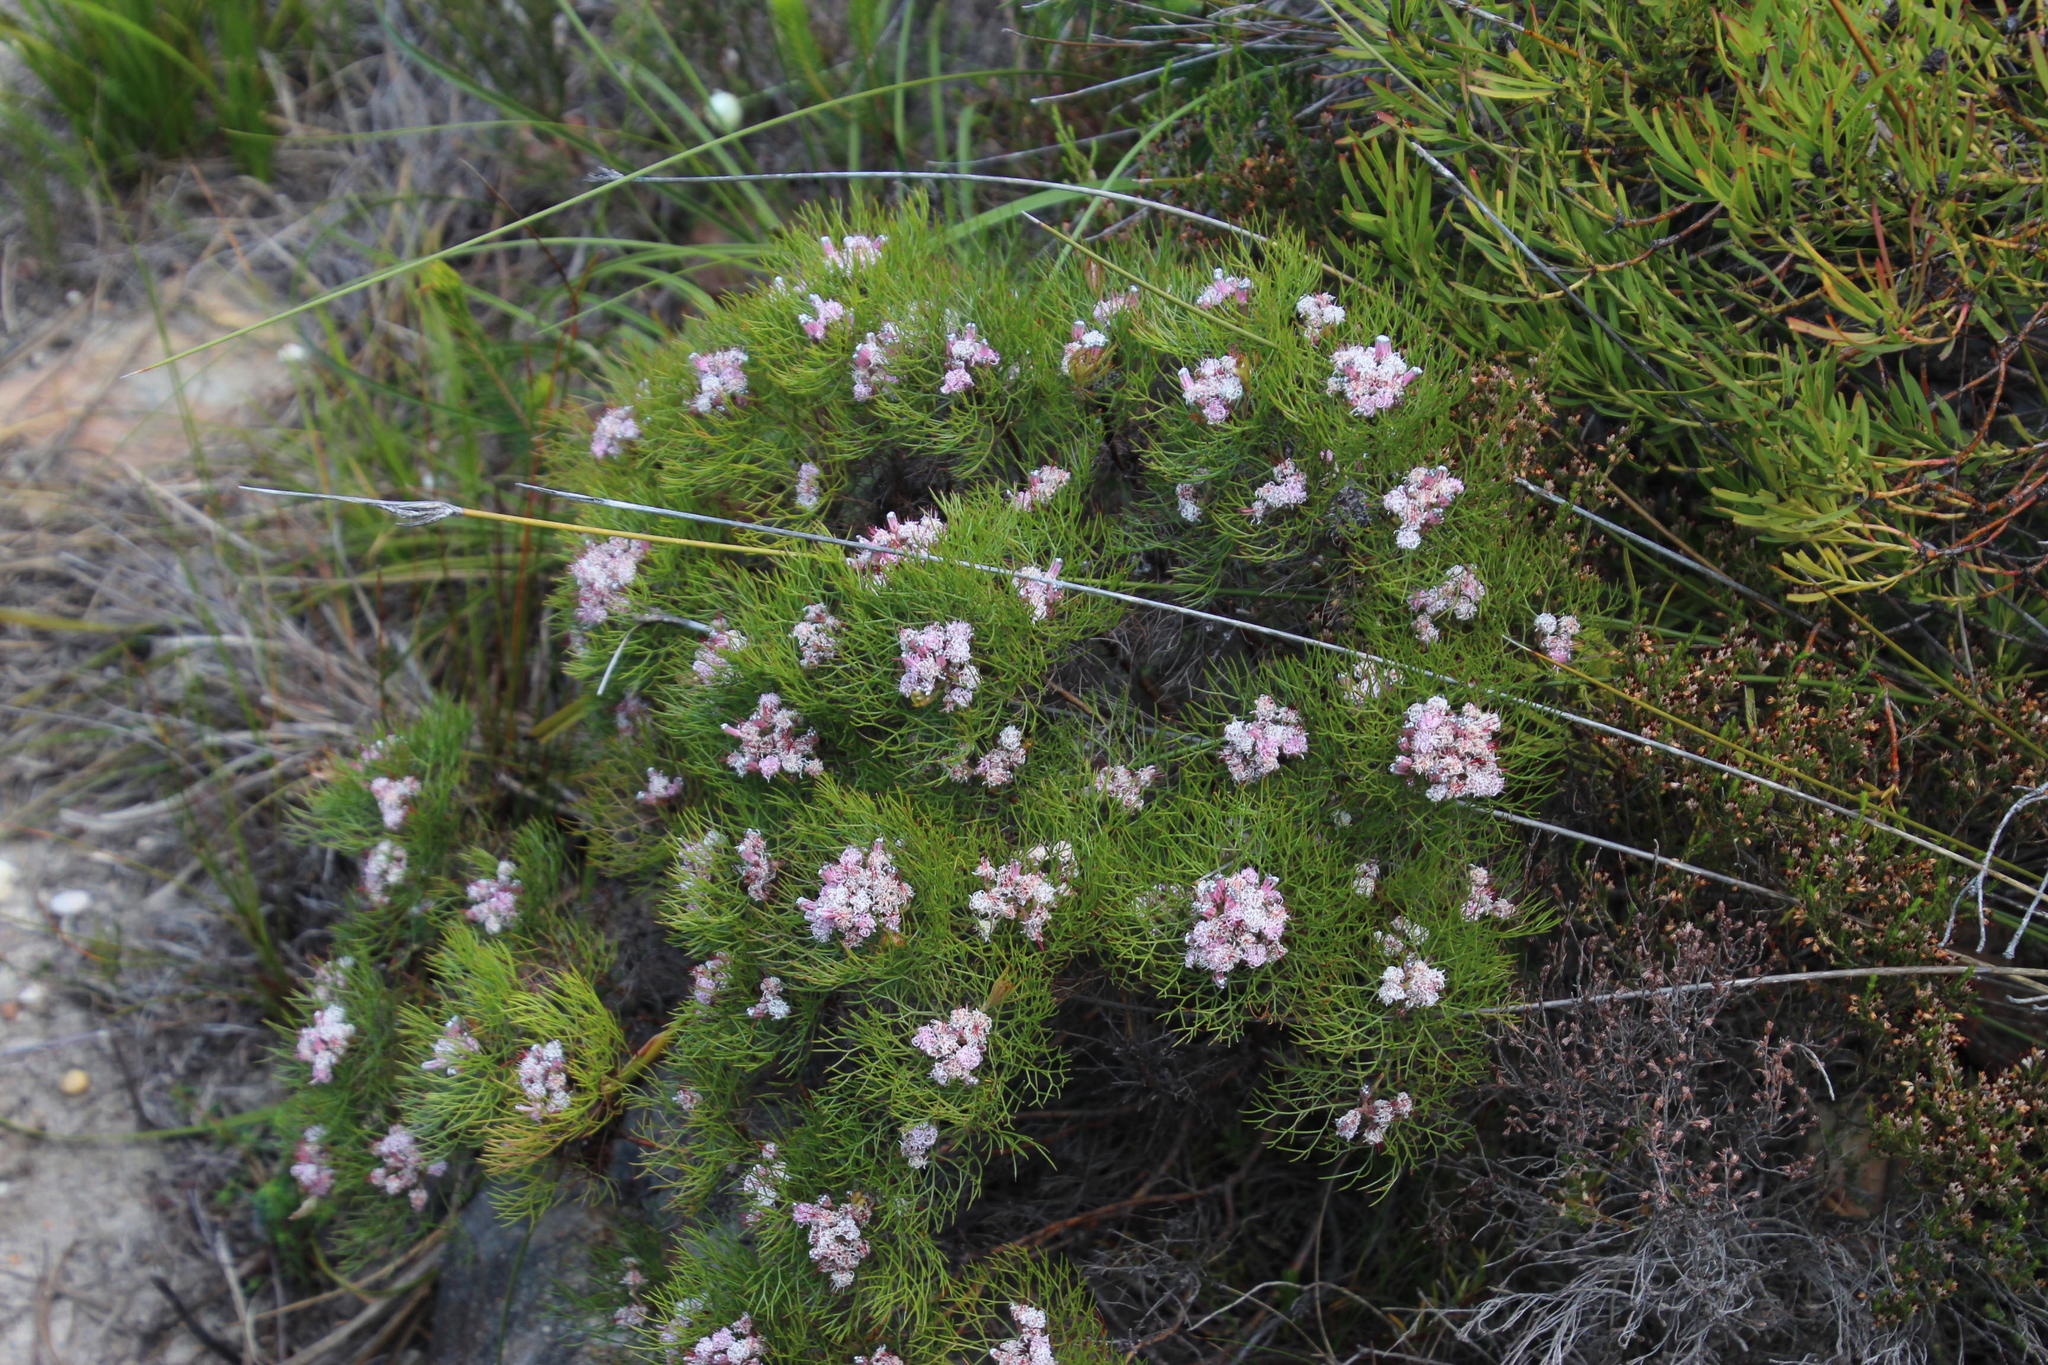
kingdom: Plantae
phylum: Tracheophyta
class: Magnoliopsida
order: Proteales
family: Proteaceae
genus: Serruria
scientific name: Serruria fasciflora
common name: Common pin spiderhead
